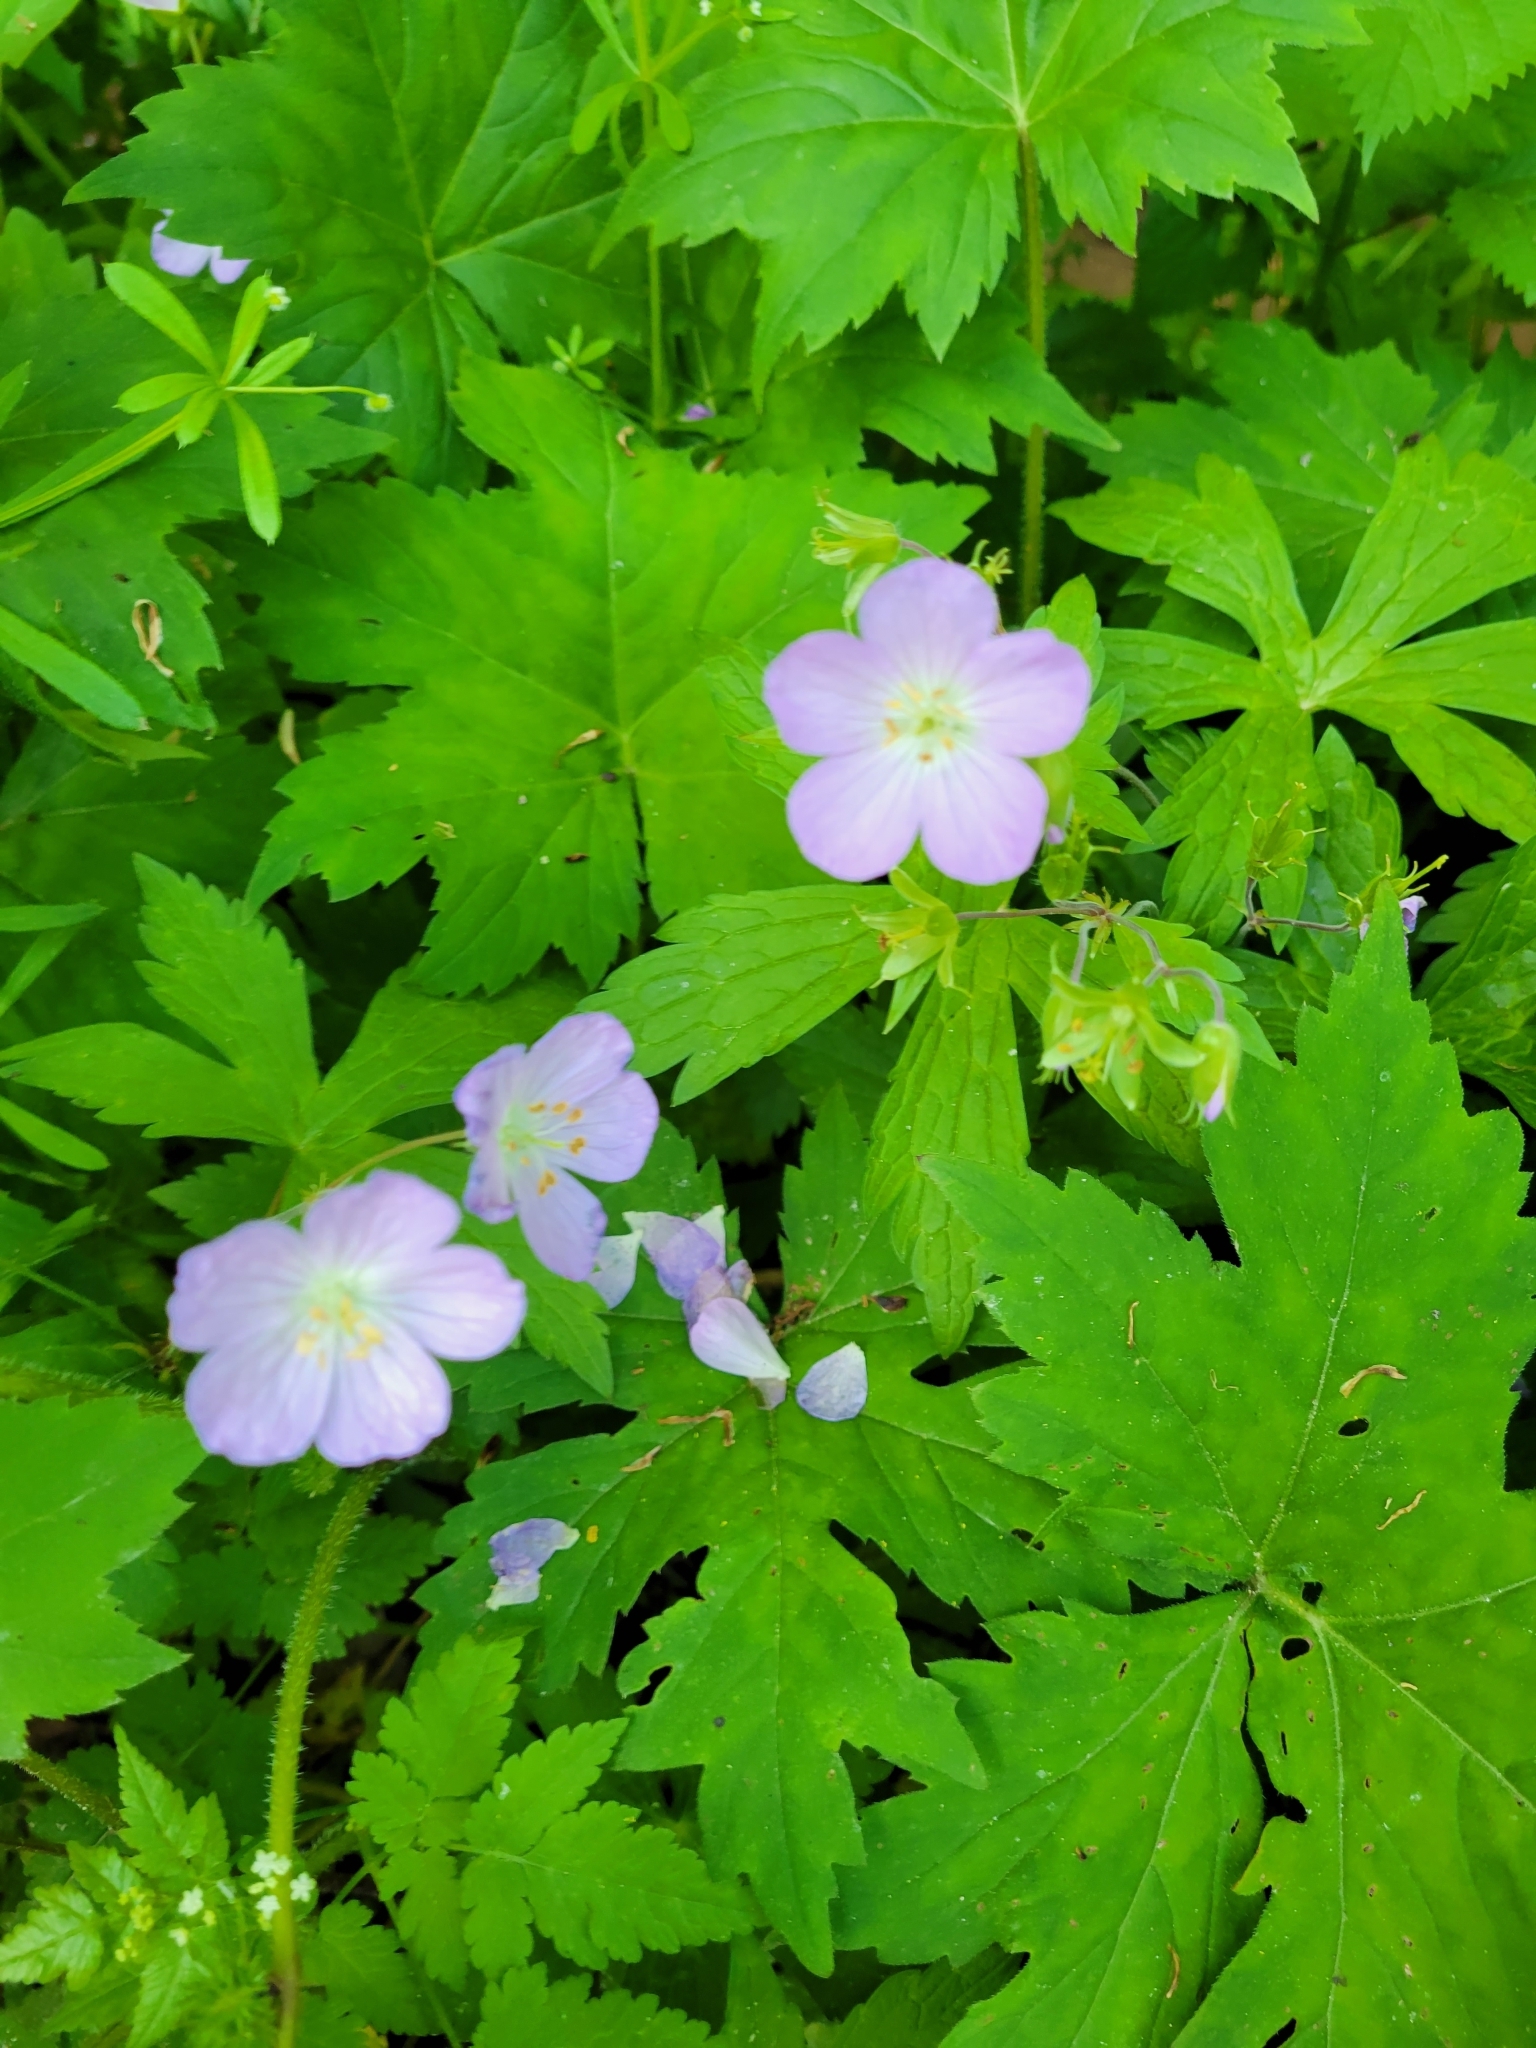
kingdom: Plantae
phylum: Tracheophyta
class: Magnoliopsida
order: Geraniales
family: Geraniaceae
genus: Geranium
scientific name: Geranium maculatum
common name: Spotted geranium
